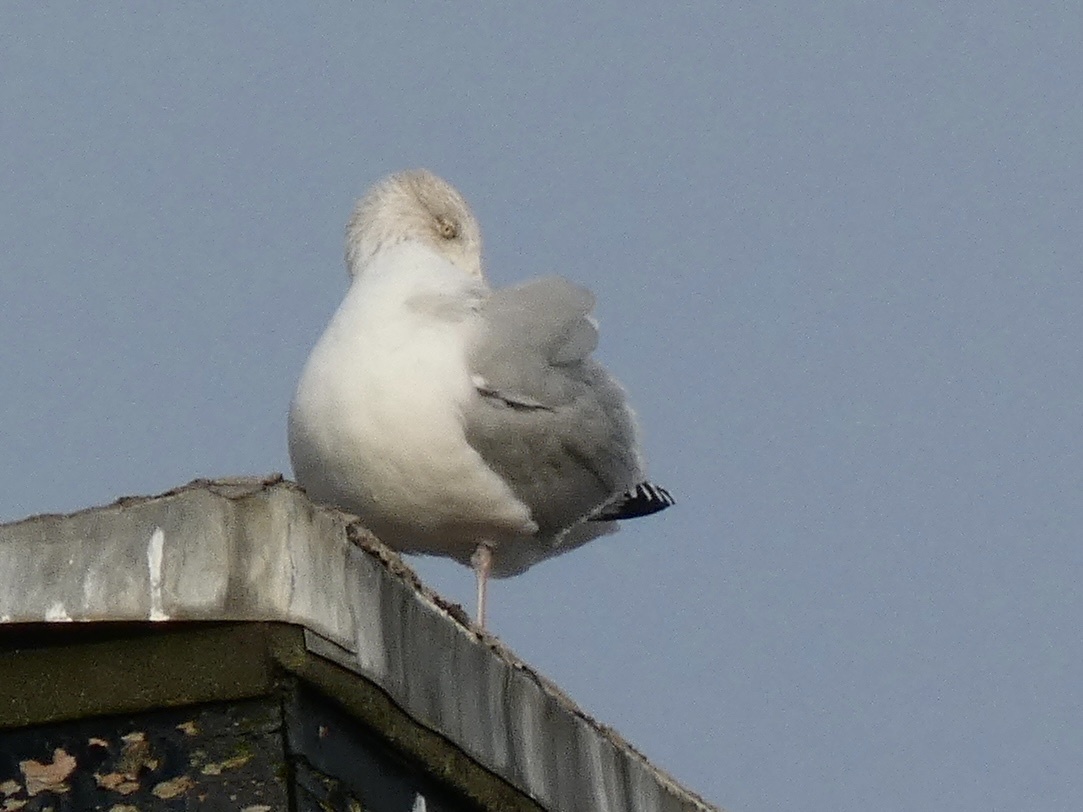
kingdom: Animalia
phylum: Chordata
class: Aves
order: Charadriiformes
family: Laridae
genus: Larus
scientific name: Larus argentatus
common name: Herring gull
